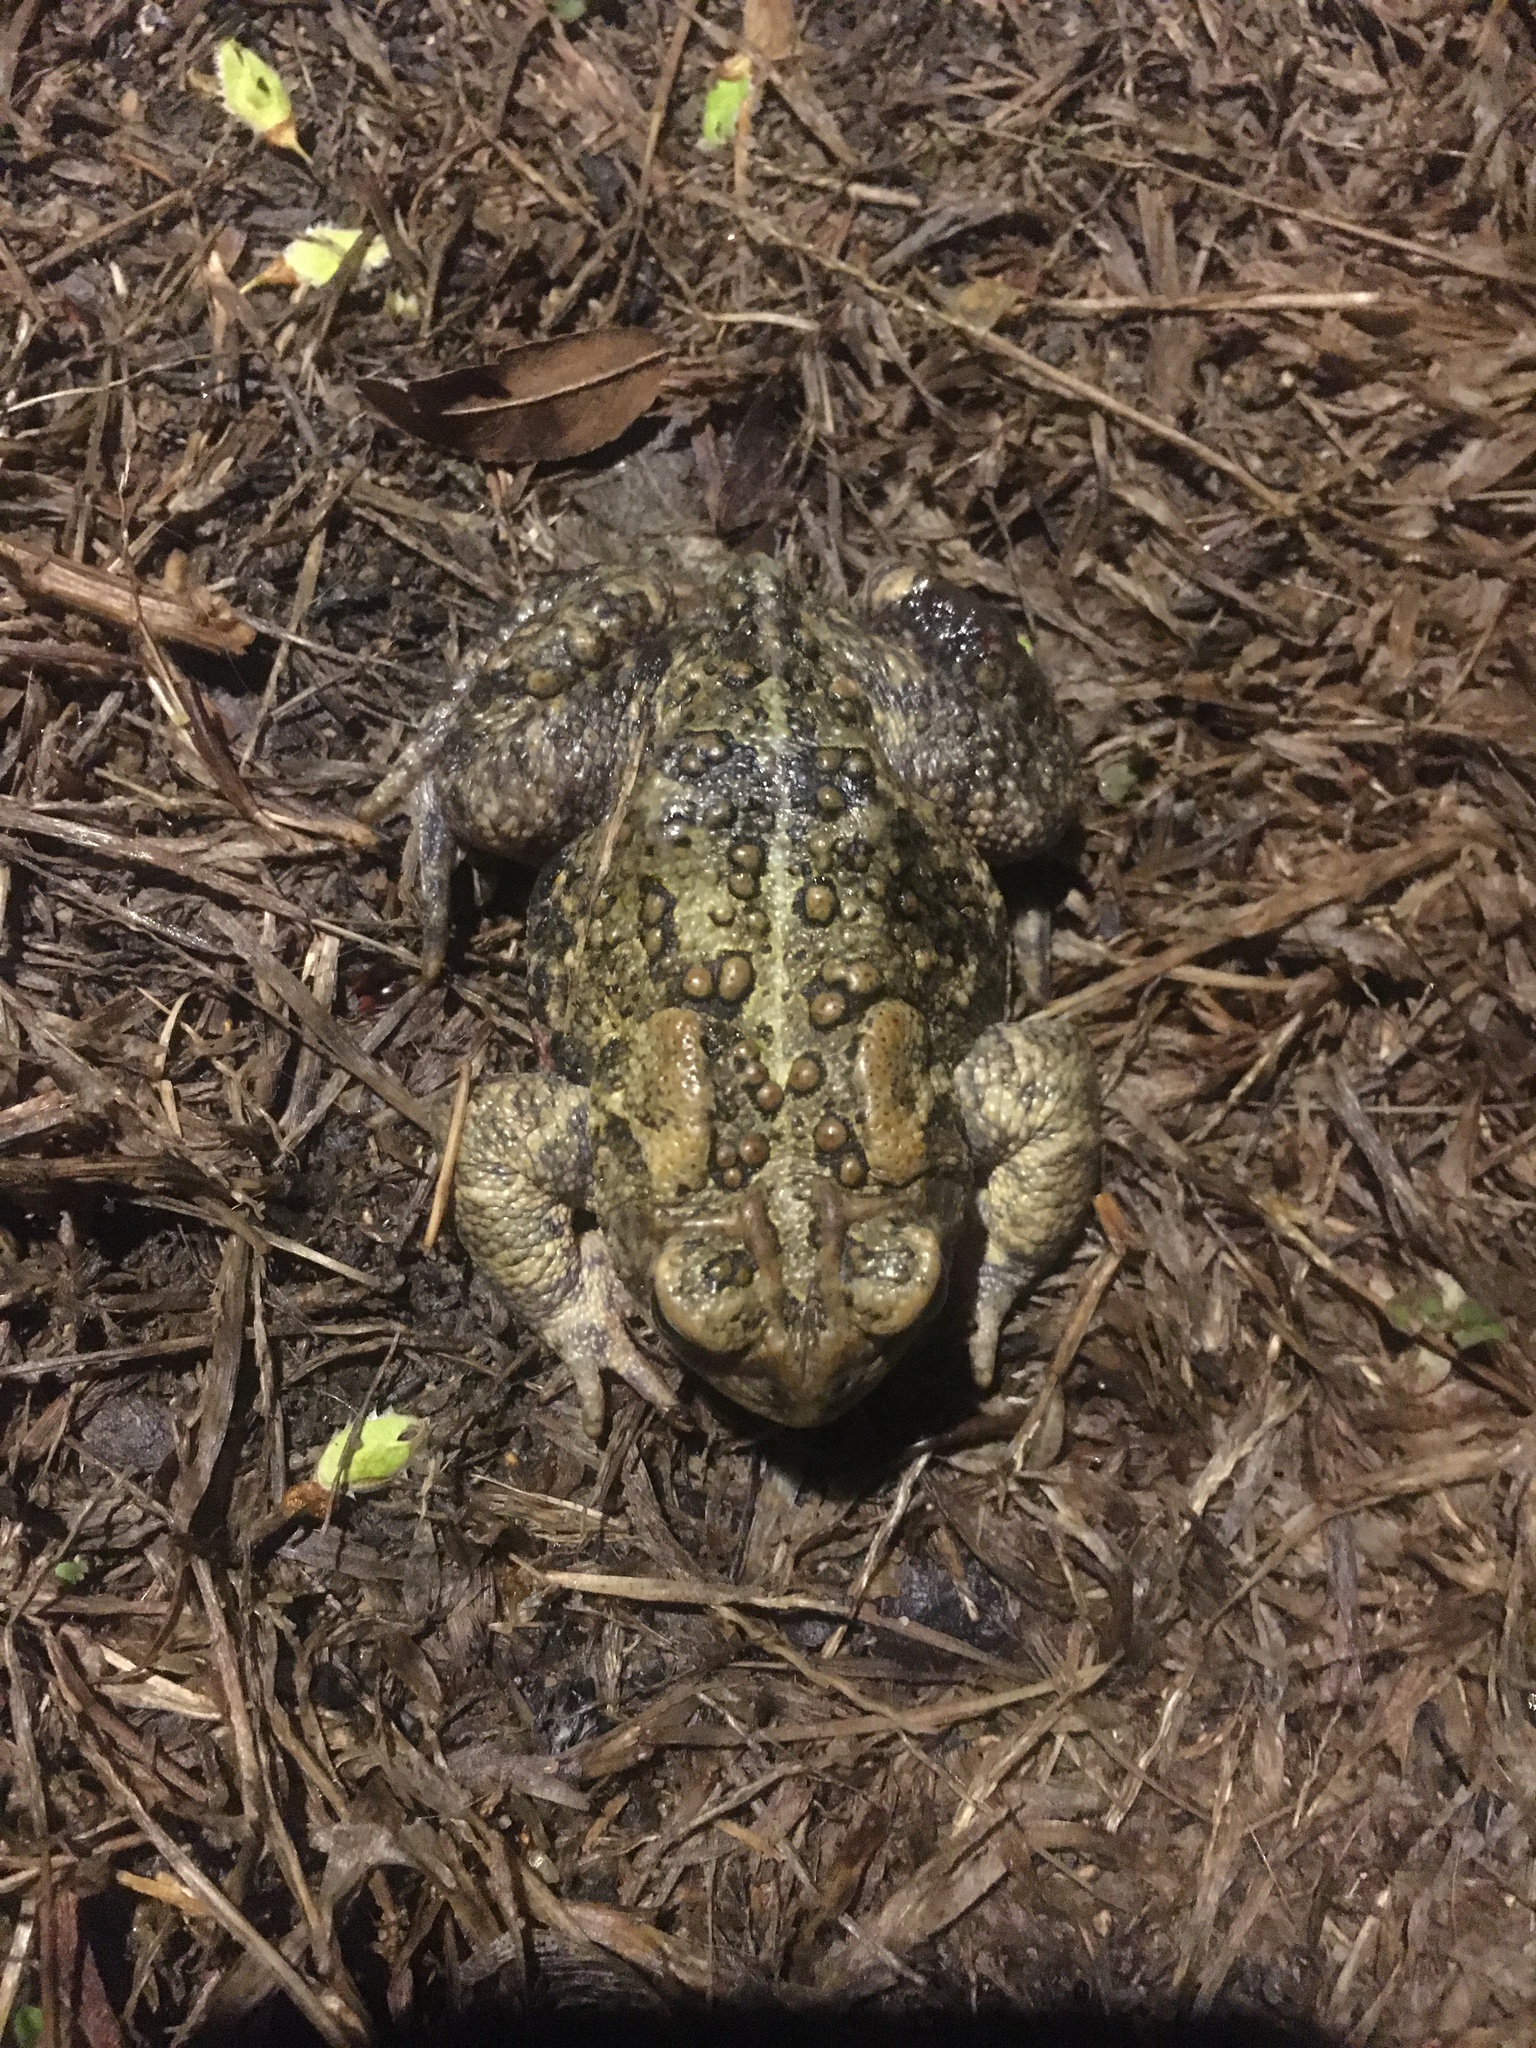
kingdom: Animalia
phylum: Chordata
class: Amphibia
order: Anura
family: Bufonidae
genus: Anaxyrus
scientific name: Anaxyrus americanus
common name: American toad
